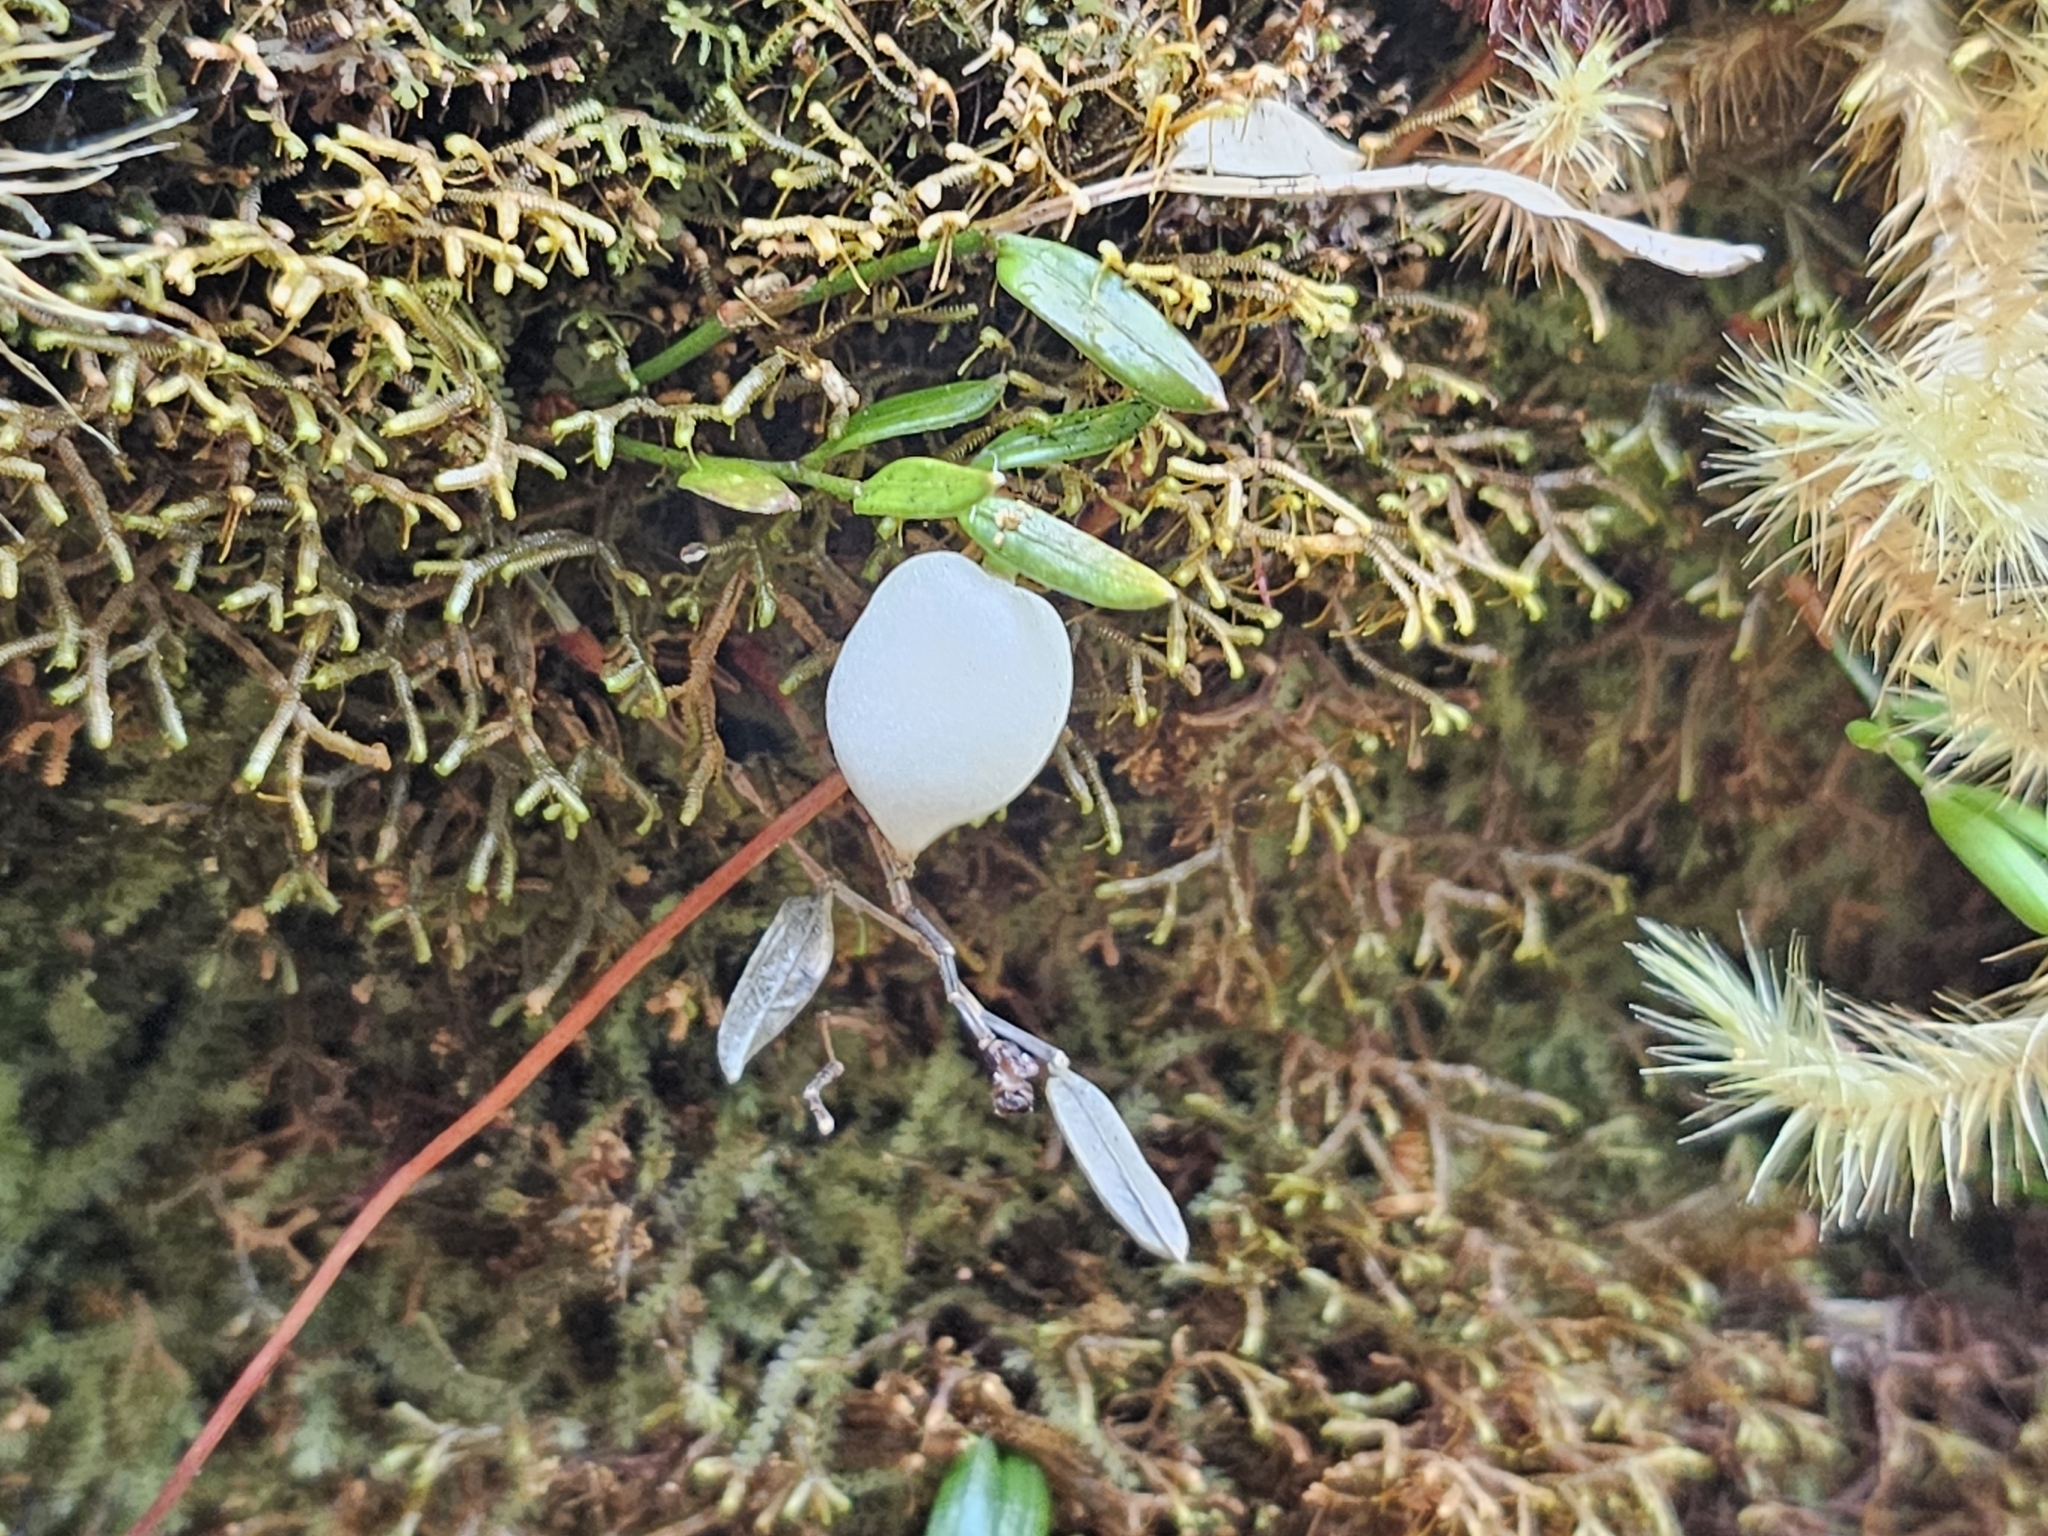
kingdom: Plantae
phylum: Tracheophyta
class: Liliopsida
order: Liliales
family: Alstroemeriaceae
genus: Luzuriaga
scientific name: Luzuriaga parviflora
